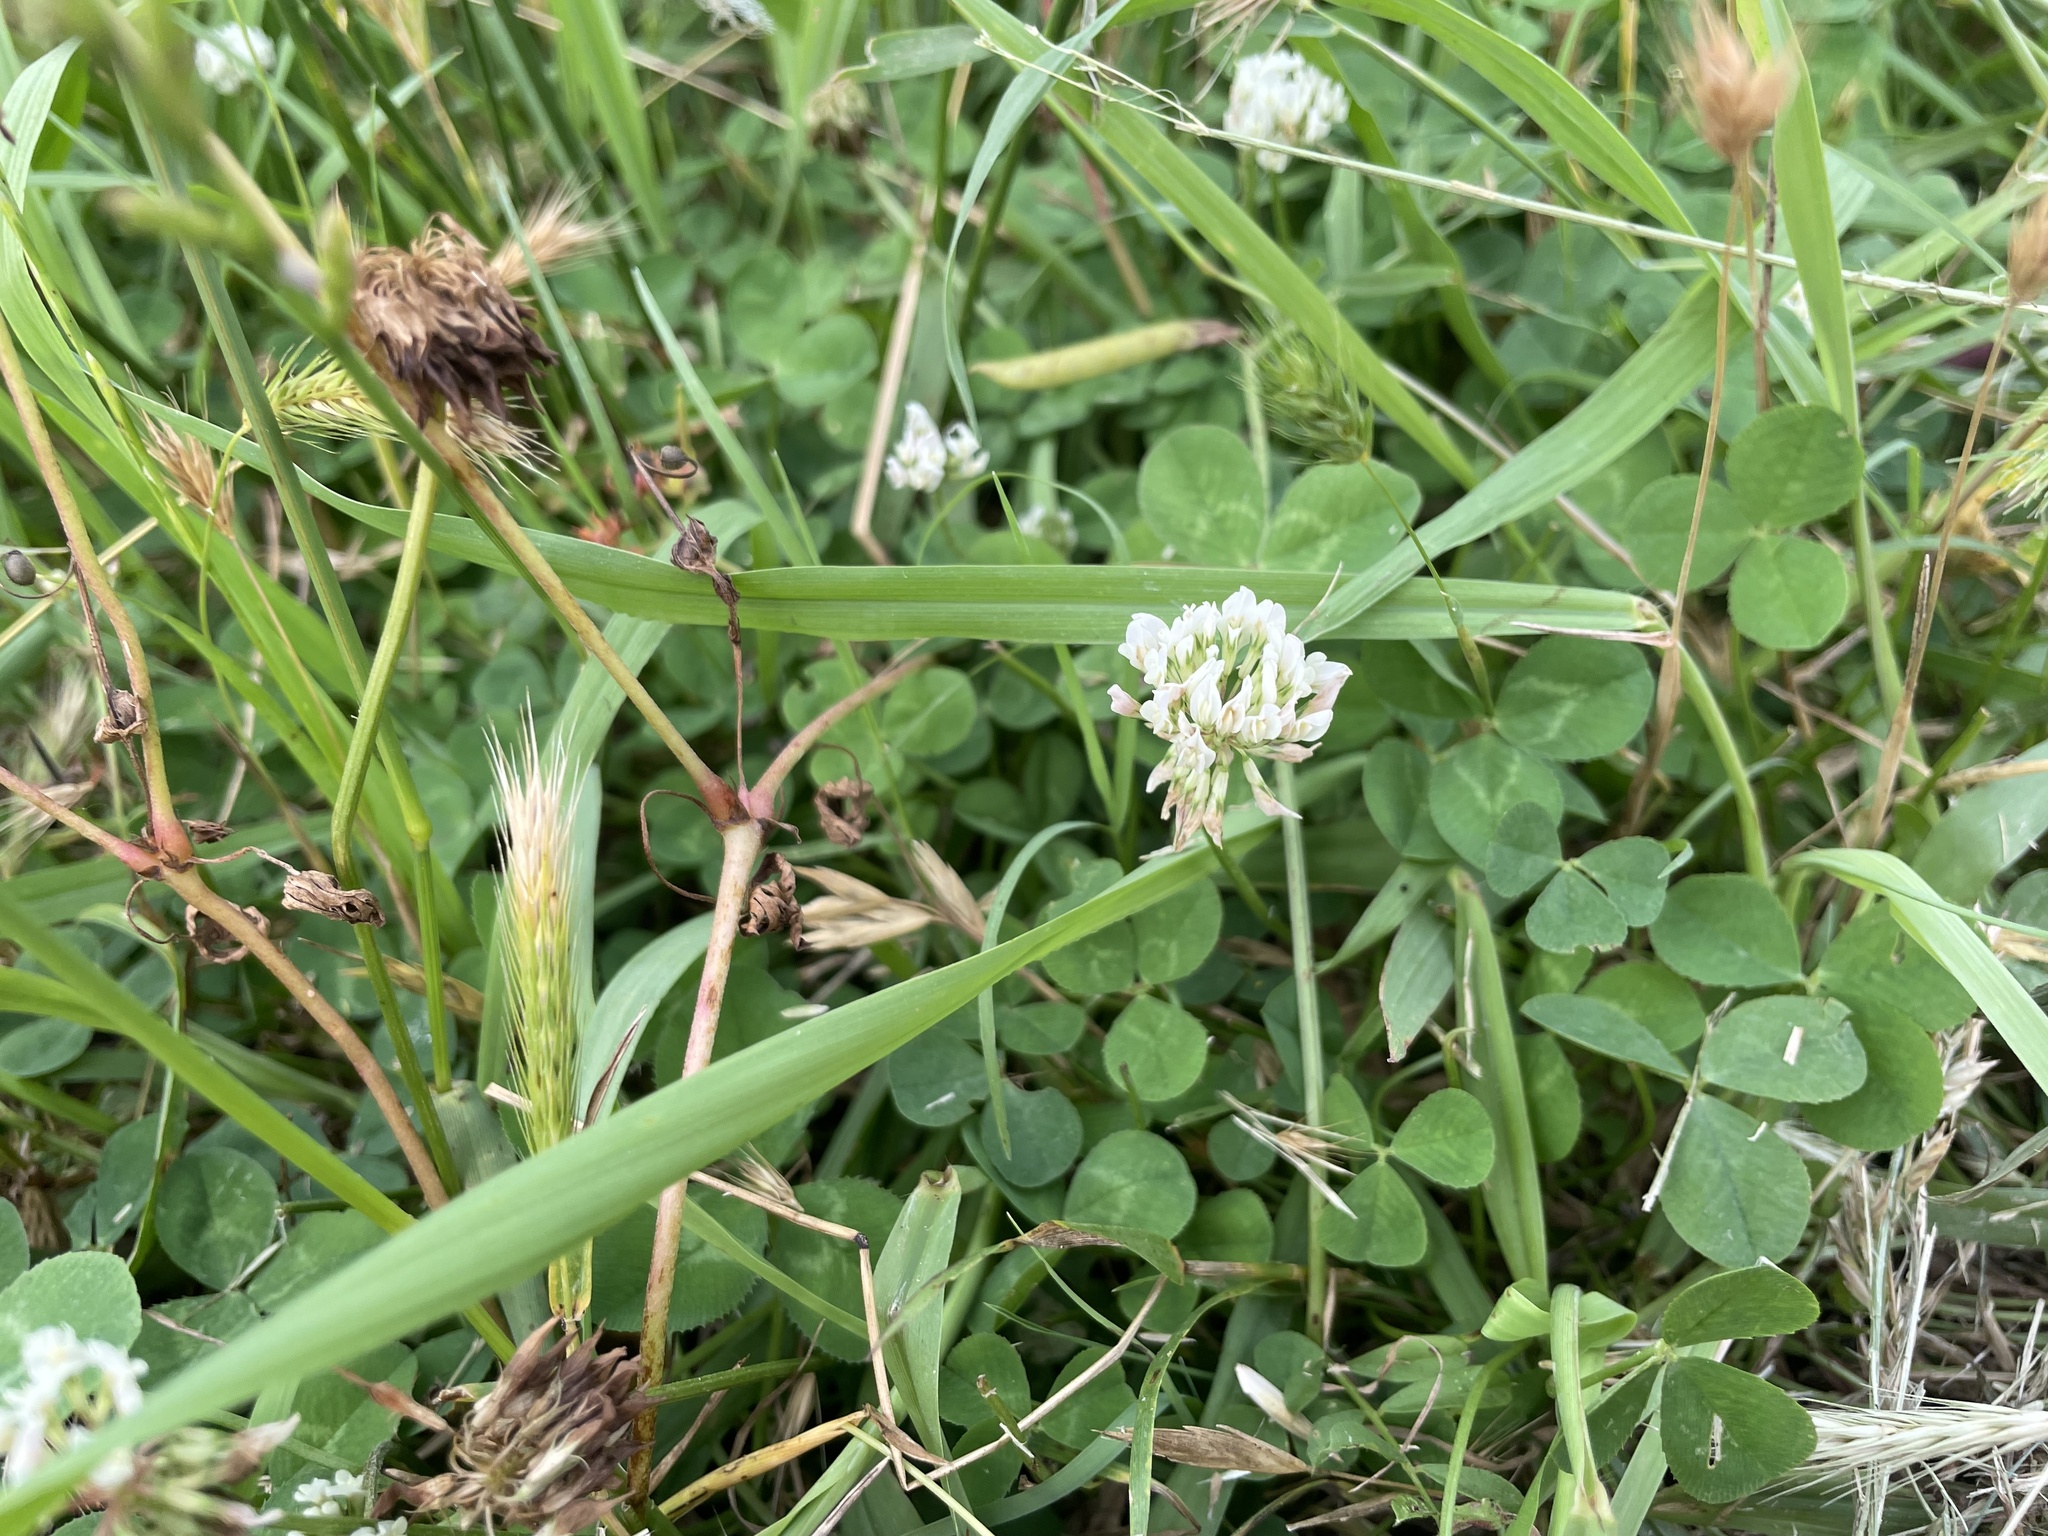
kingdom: Plantae
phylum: Tracheophyta
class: Magnoliopsida
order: Fabales
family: Fabaceae
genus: Trifolium
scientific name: Trifolium repens
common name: White clover
